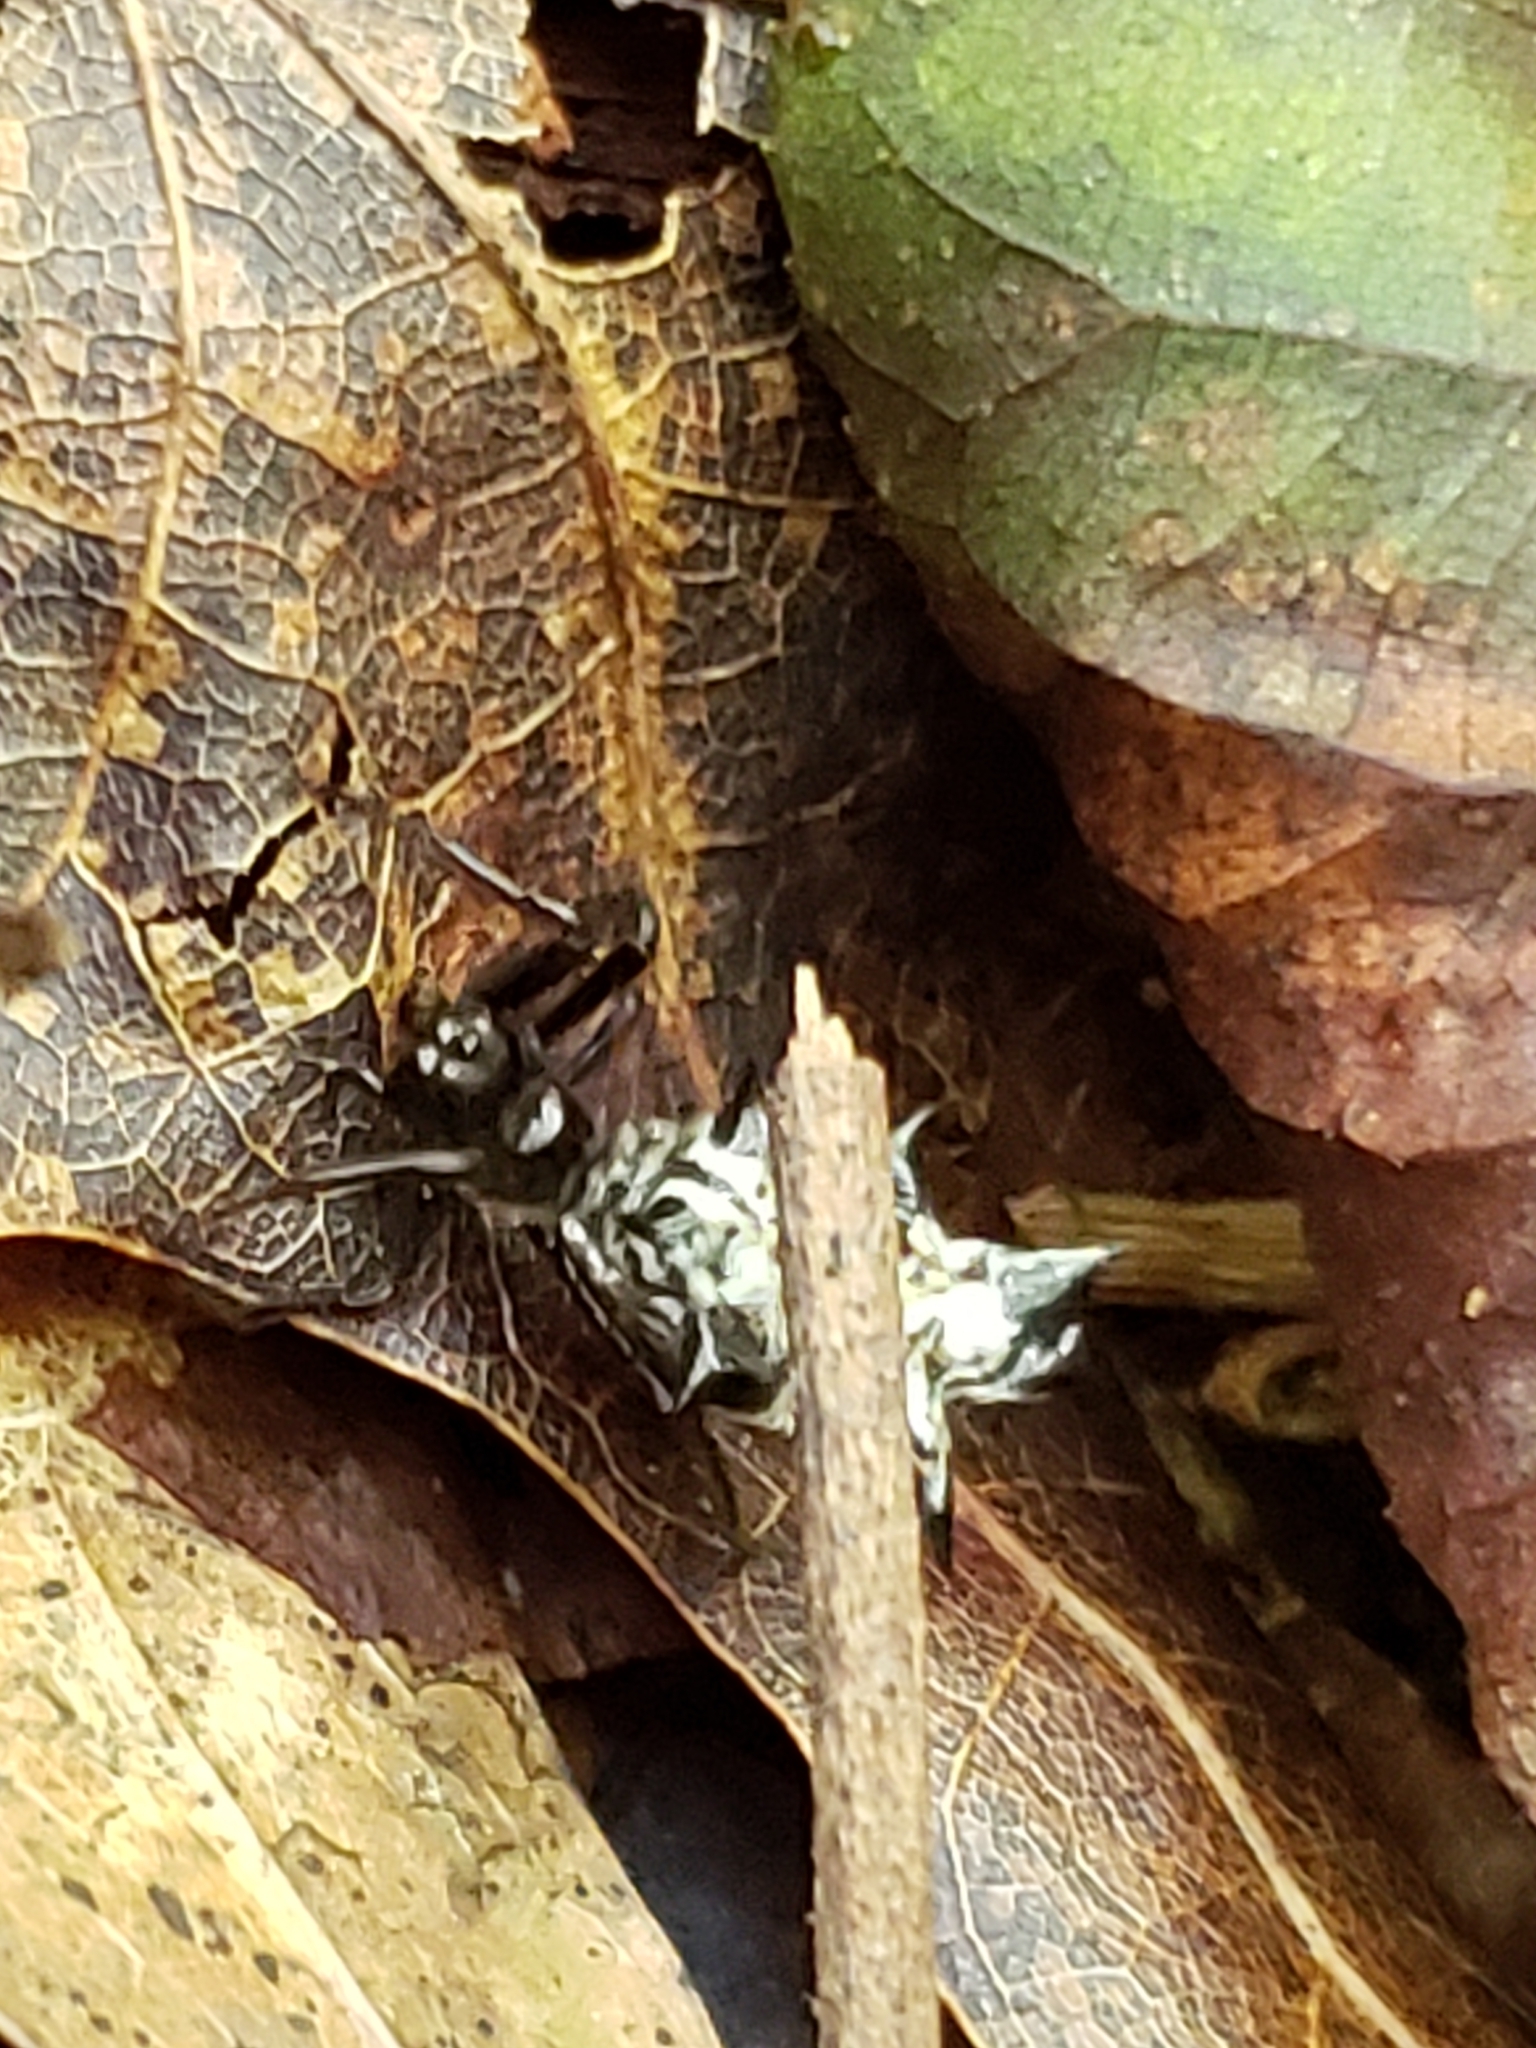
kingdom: Animalia
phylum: Arthropoda
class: Arachnida
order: Araneae
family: Araneidae
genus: Micrathena
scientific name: Micrathena gracilis
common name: Orb weavers
